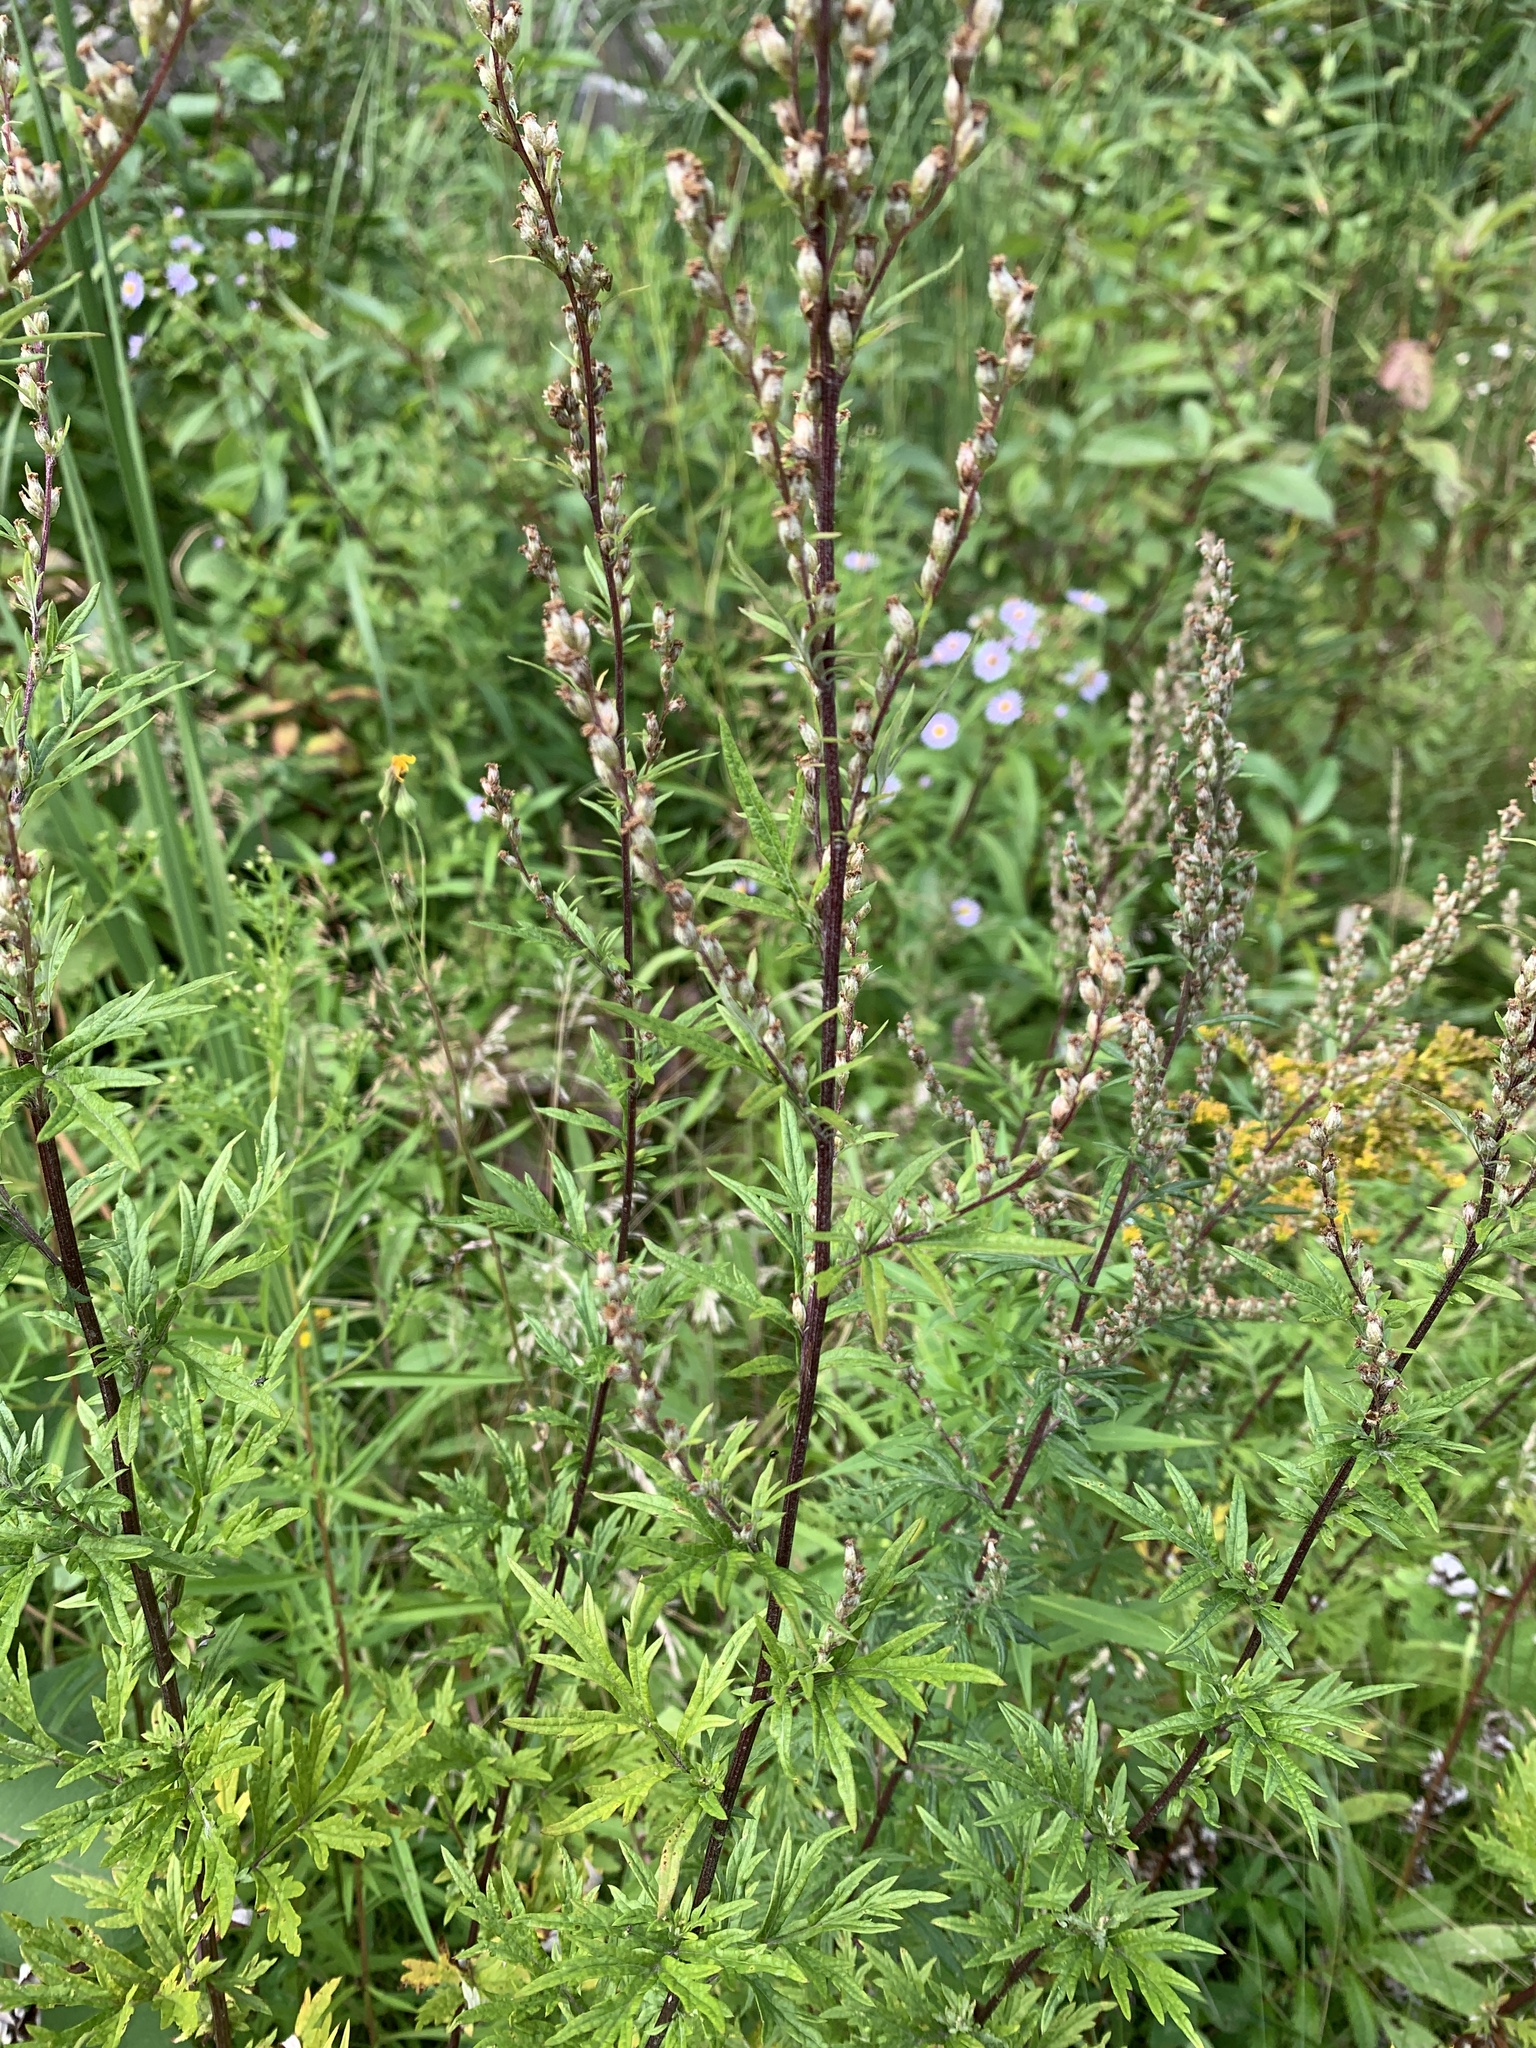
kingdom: Plantae
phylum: Tracheophyta
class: Magnoliopsida
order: Asterales
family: Asteraceae
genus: Artemisia
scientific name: Artemisia vulgaris
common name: Mugwort
